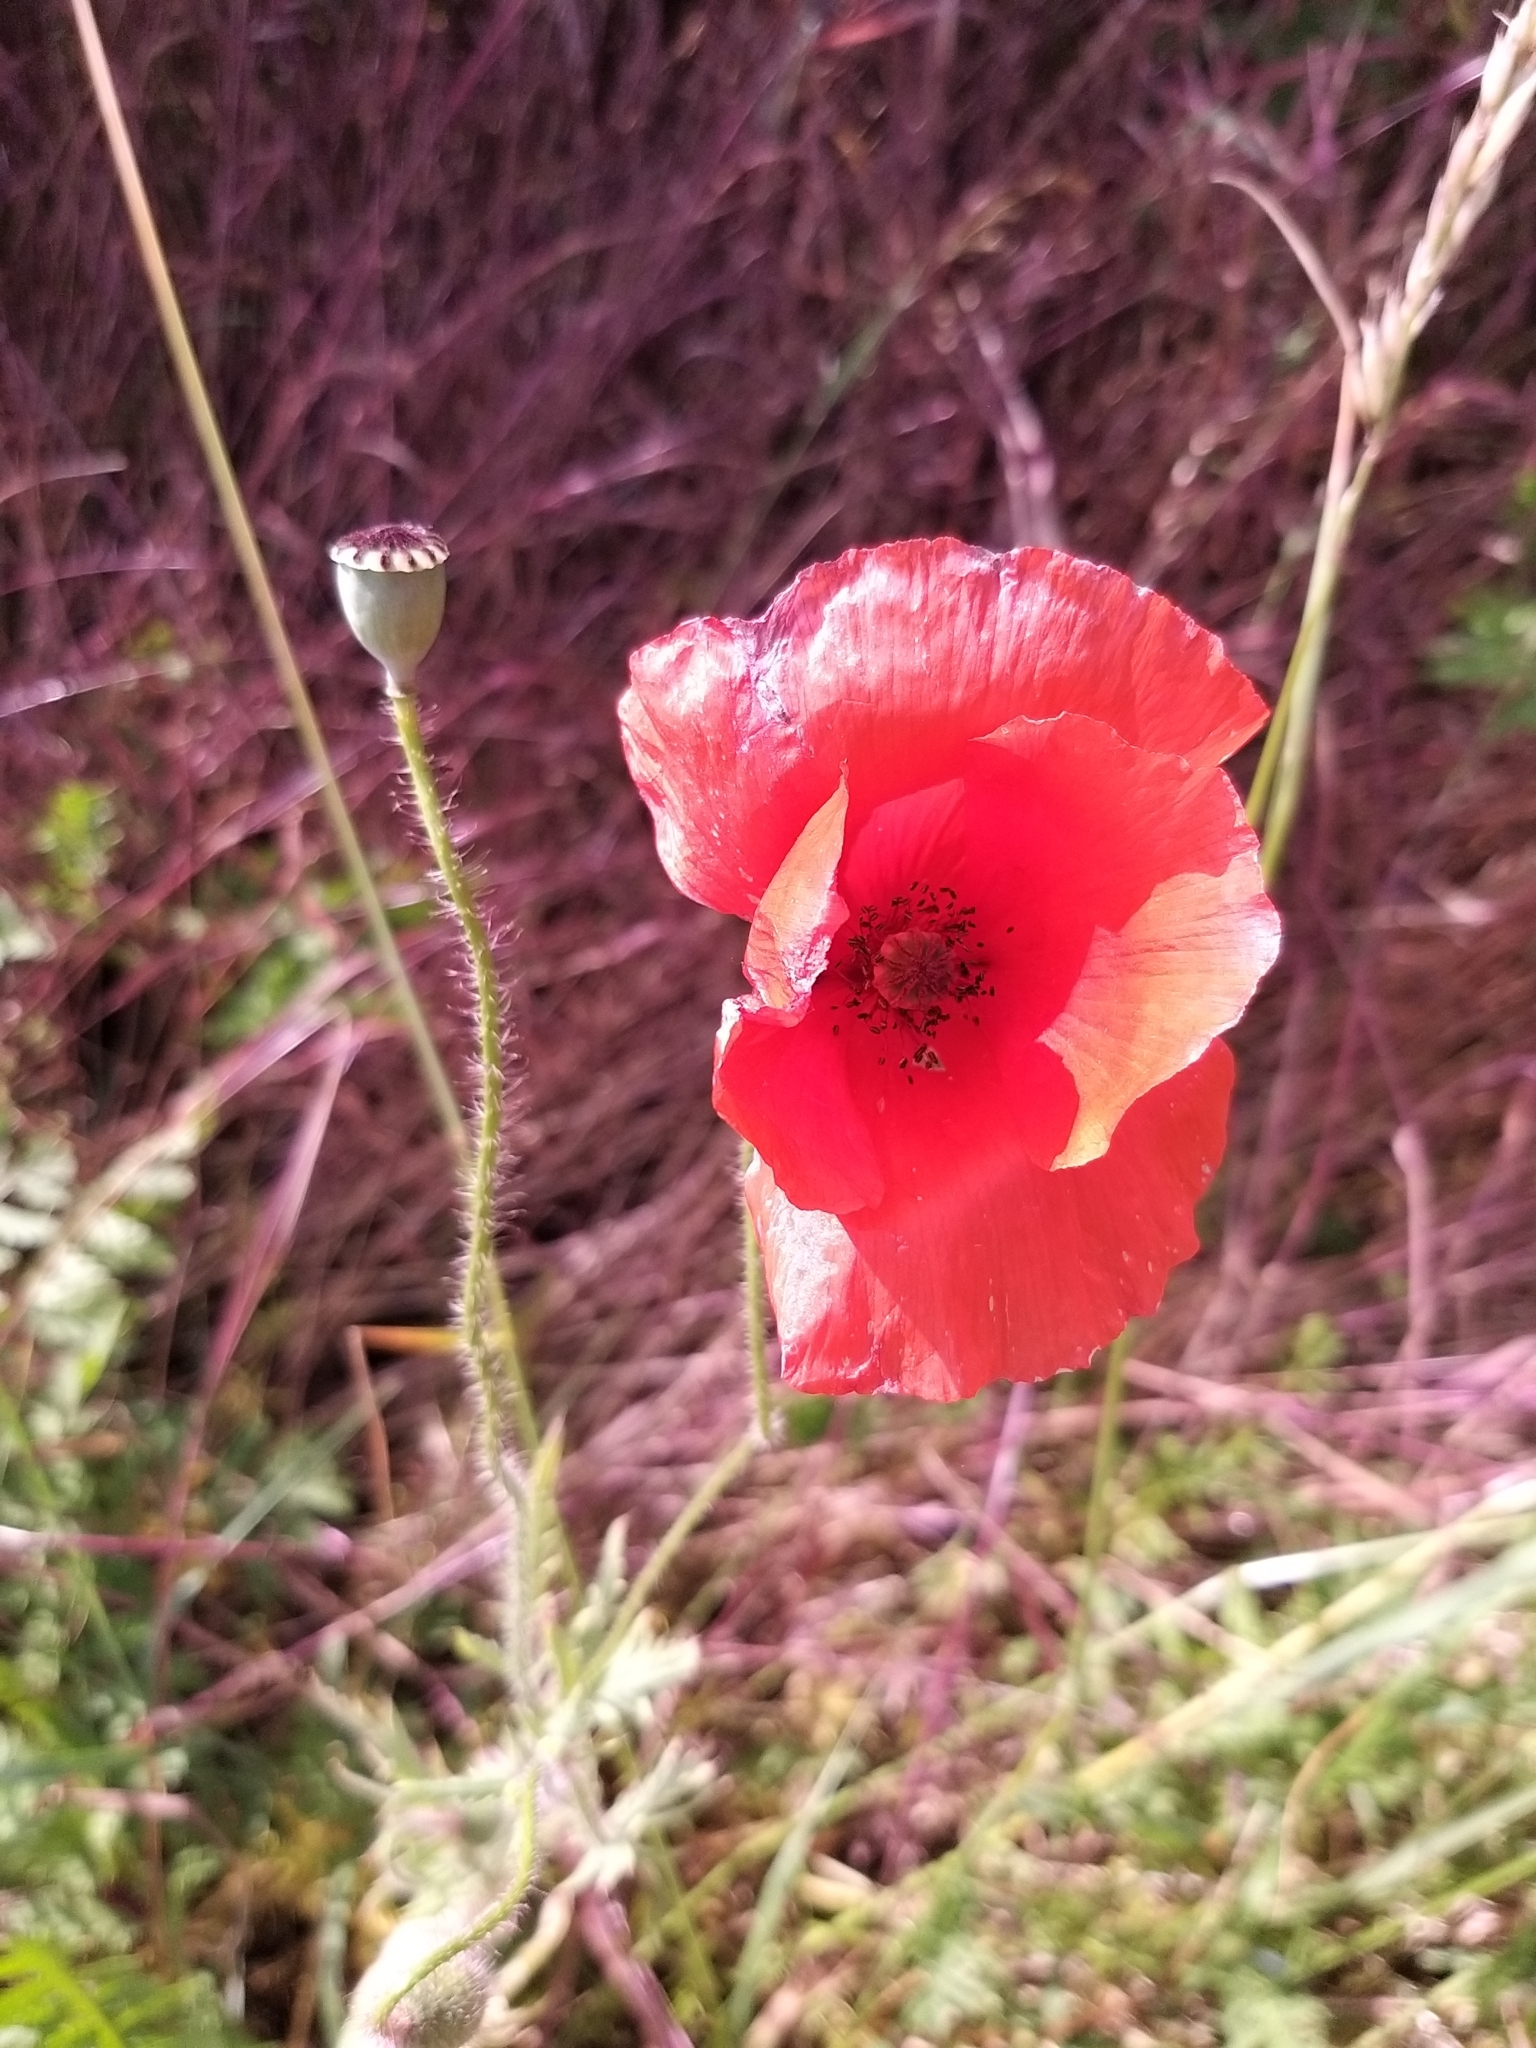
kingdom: Plantae
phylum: Tracheophyta
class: Magnoliopsida
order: Ranunculales
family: Papaveraceae
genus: Papaver
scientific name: Papaver rhoeas
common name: Corn poppy
